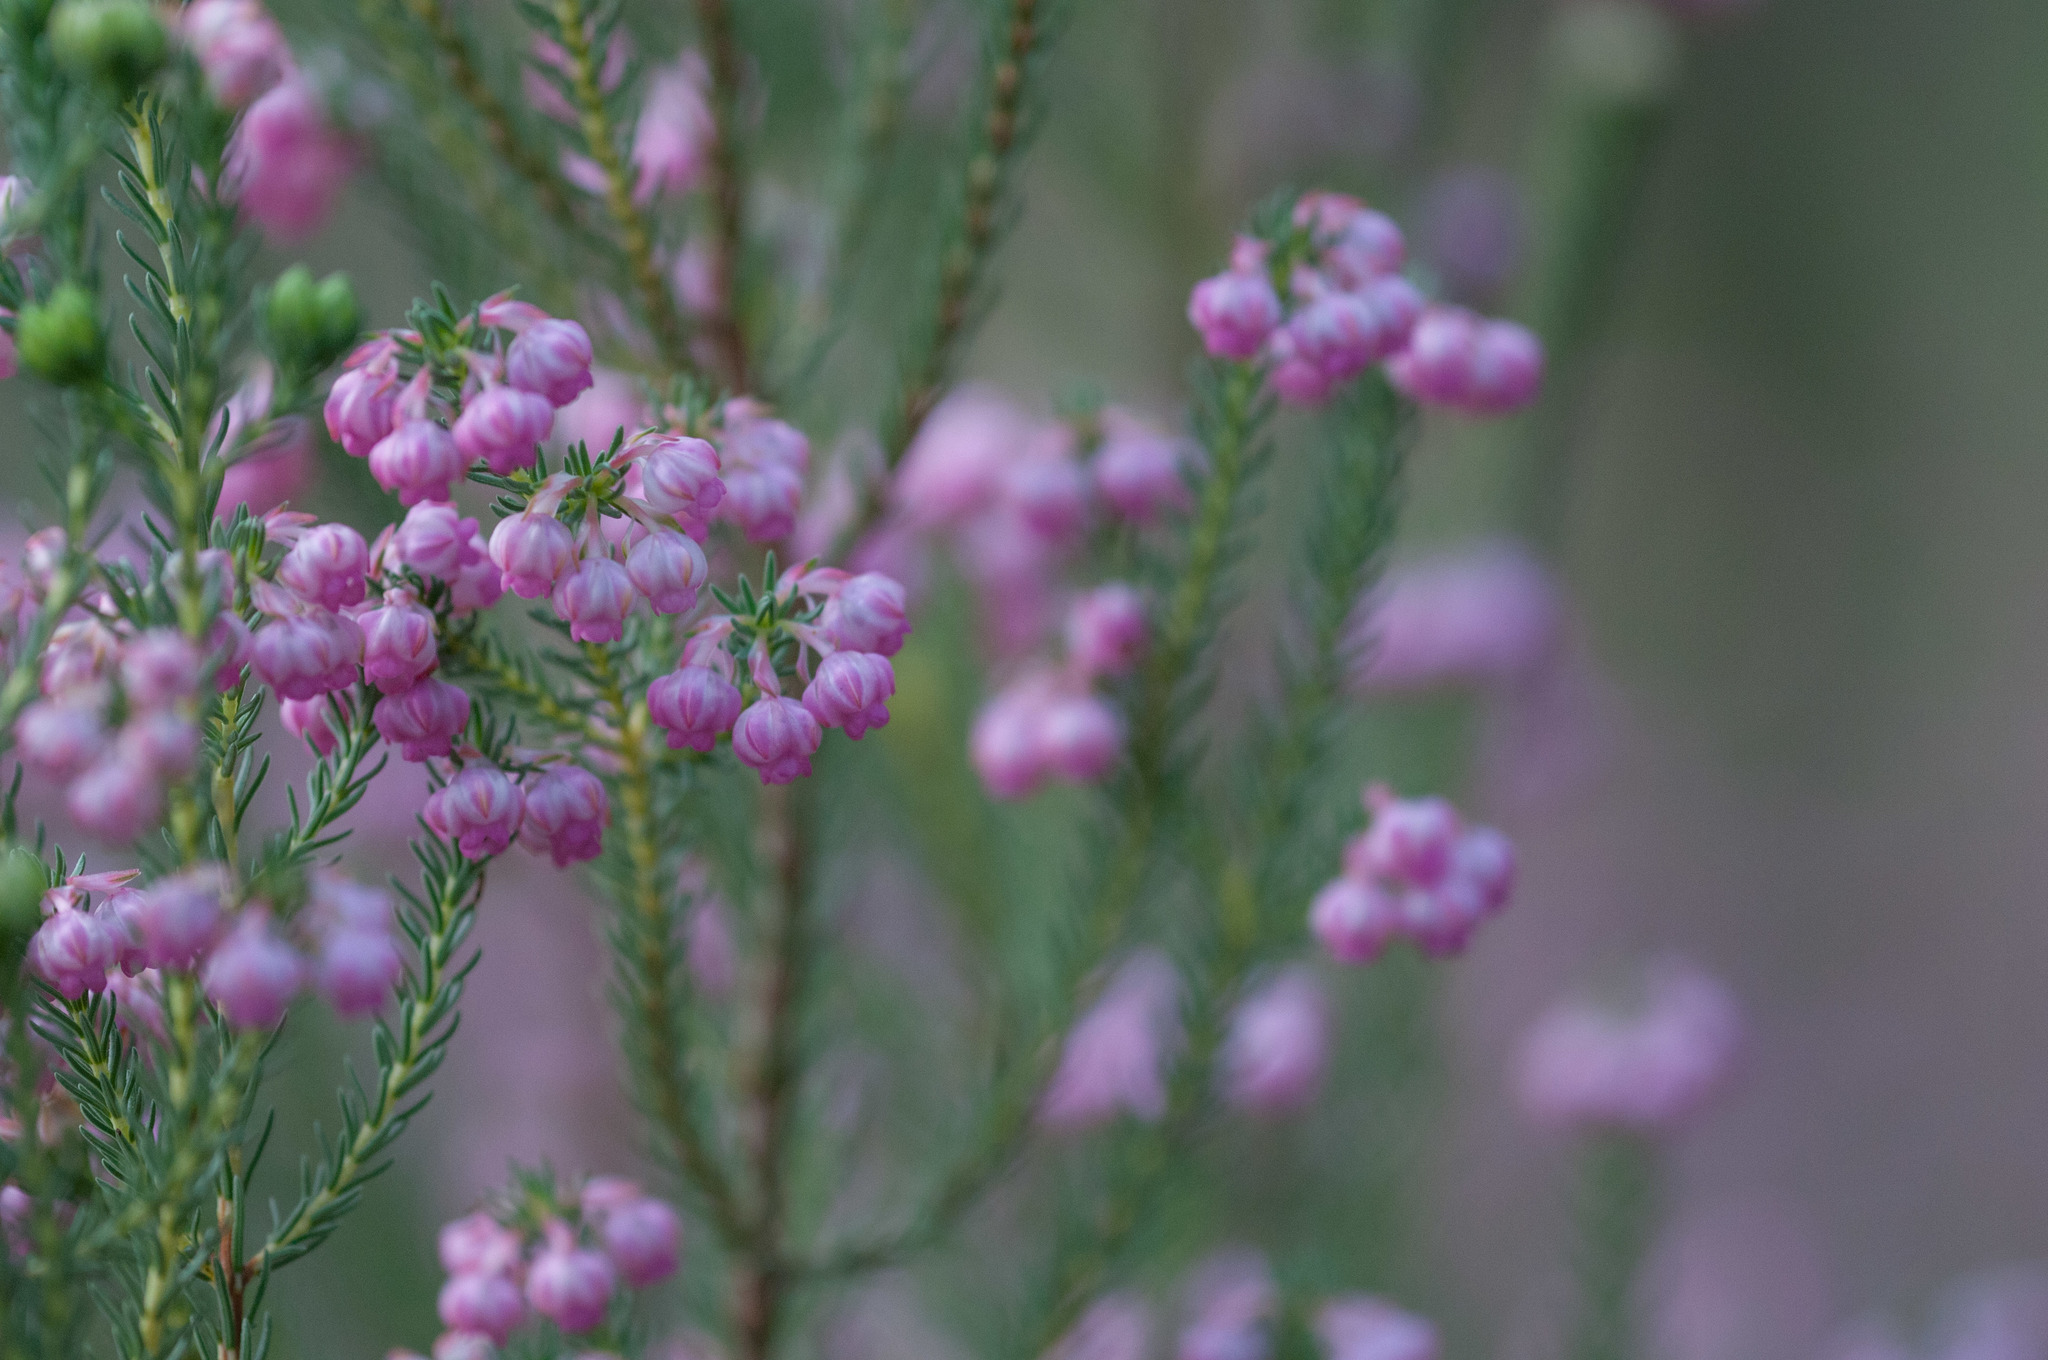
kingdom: Plantae
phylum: Tracheophyta
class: Magnoliopsida
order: Ericales
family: Ericaceae
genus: Erica
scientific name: Erica baccans
